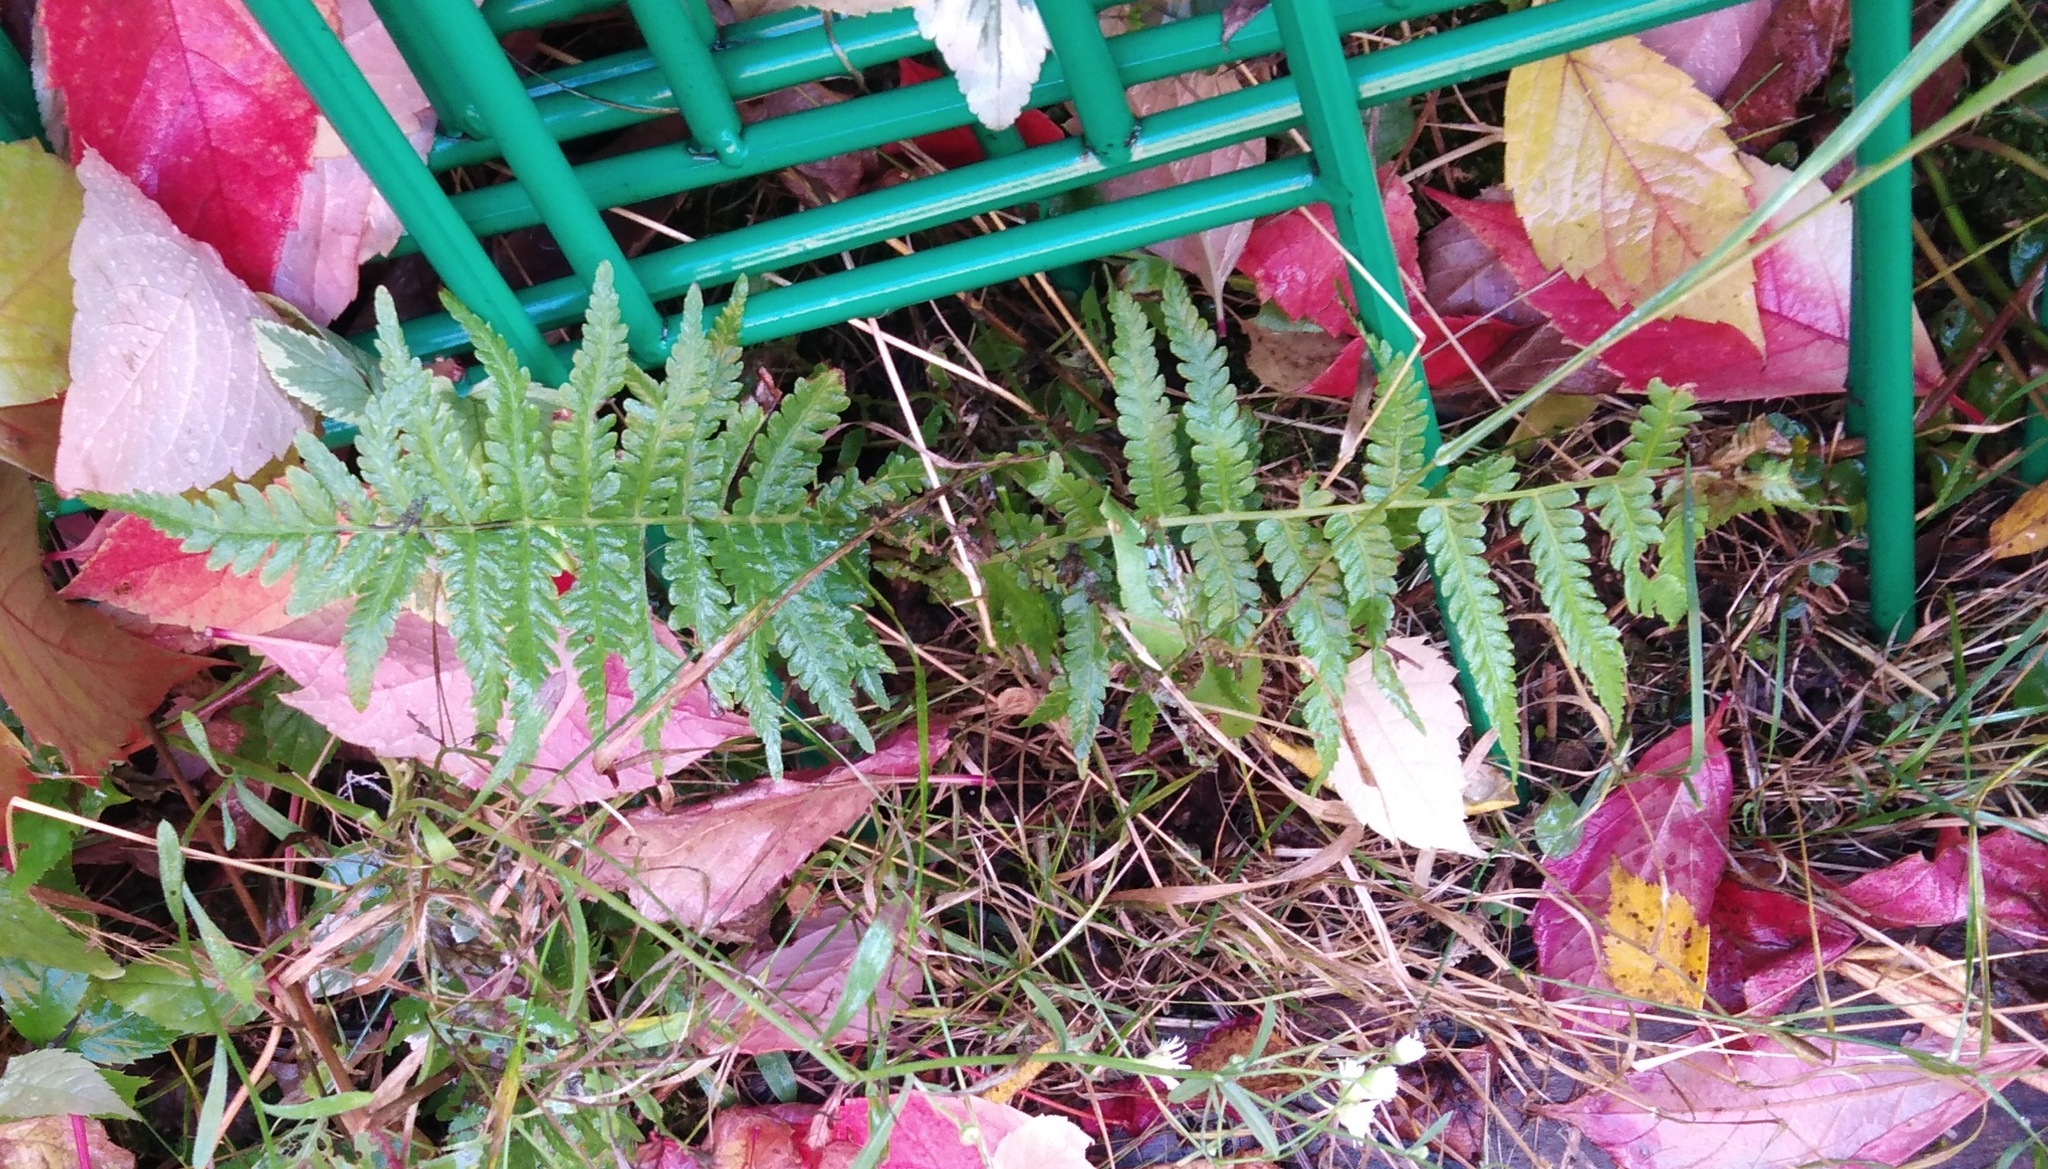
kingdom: Plantae
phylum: Tracheophyta
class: Polypodiopsida
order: Polypodiales
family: Dryopteridaceae
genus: Dryopteris
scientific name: Dryopteris filix-mas
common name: Male fern
